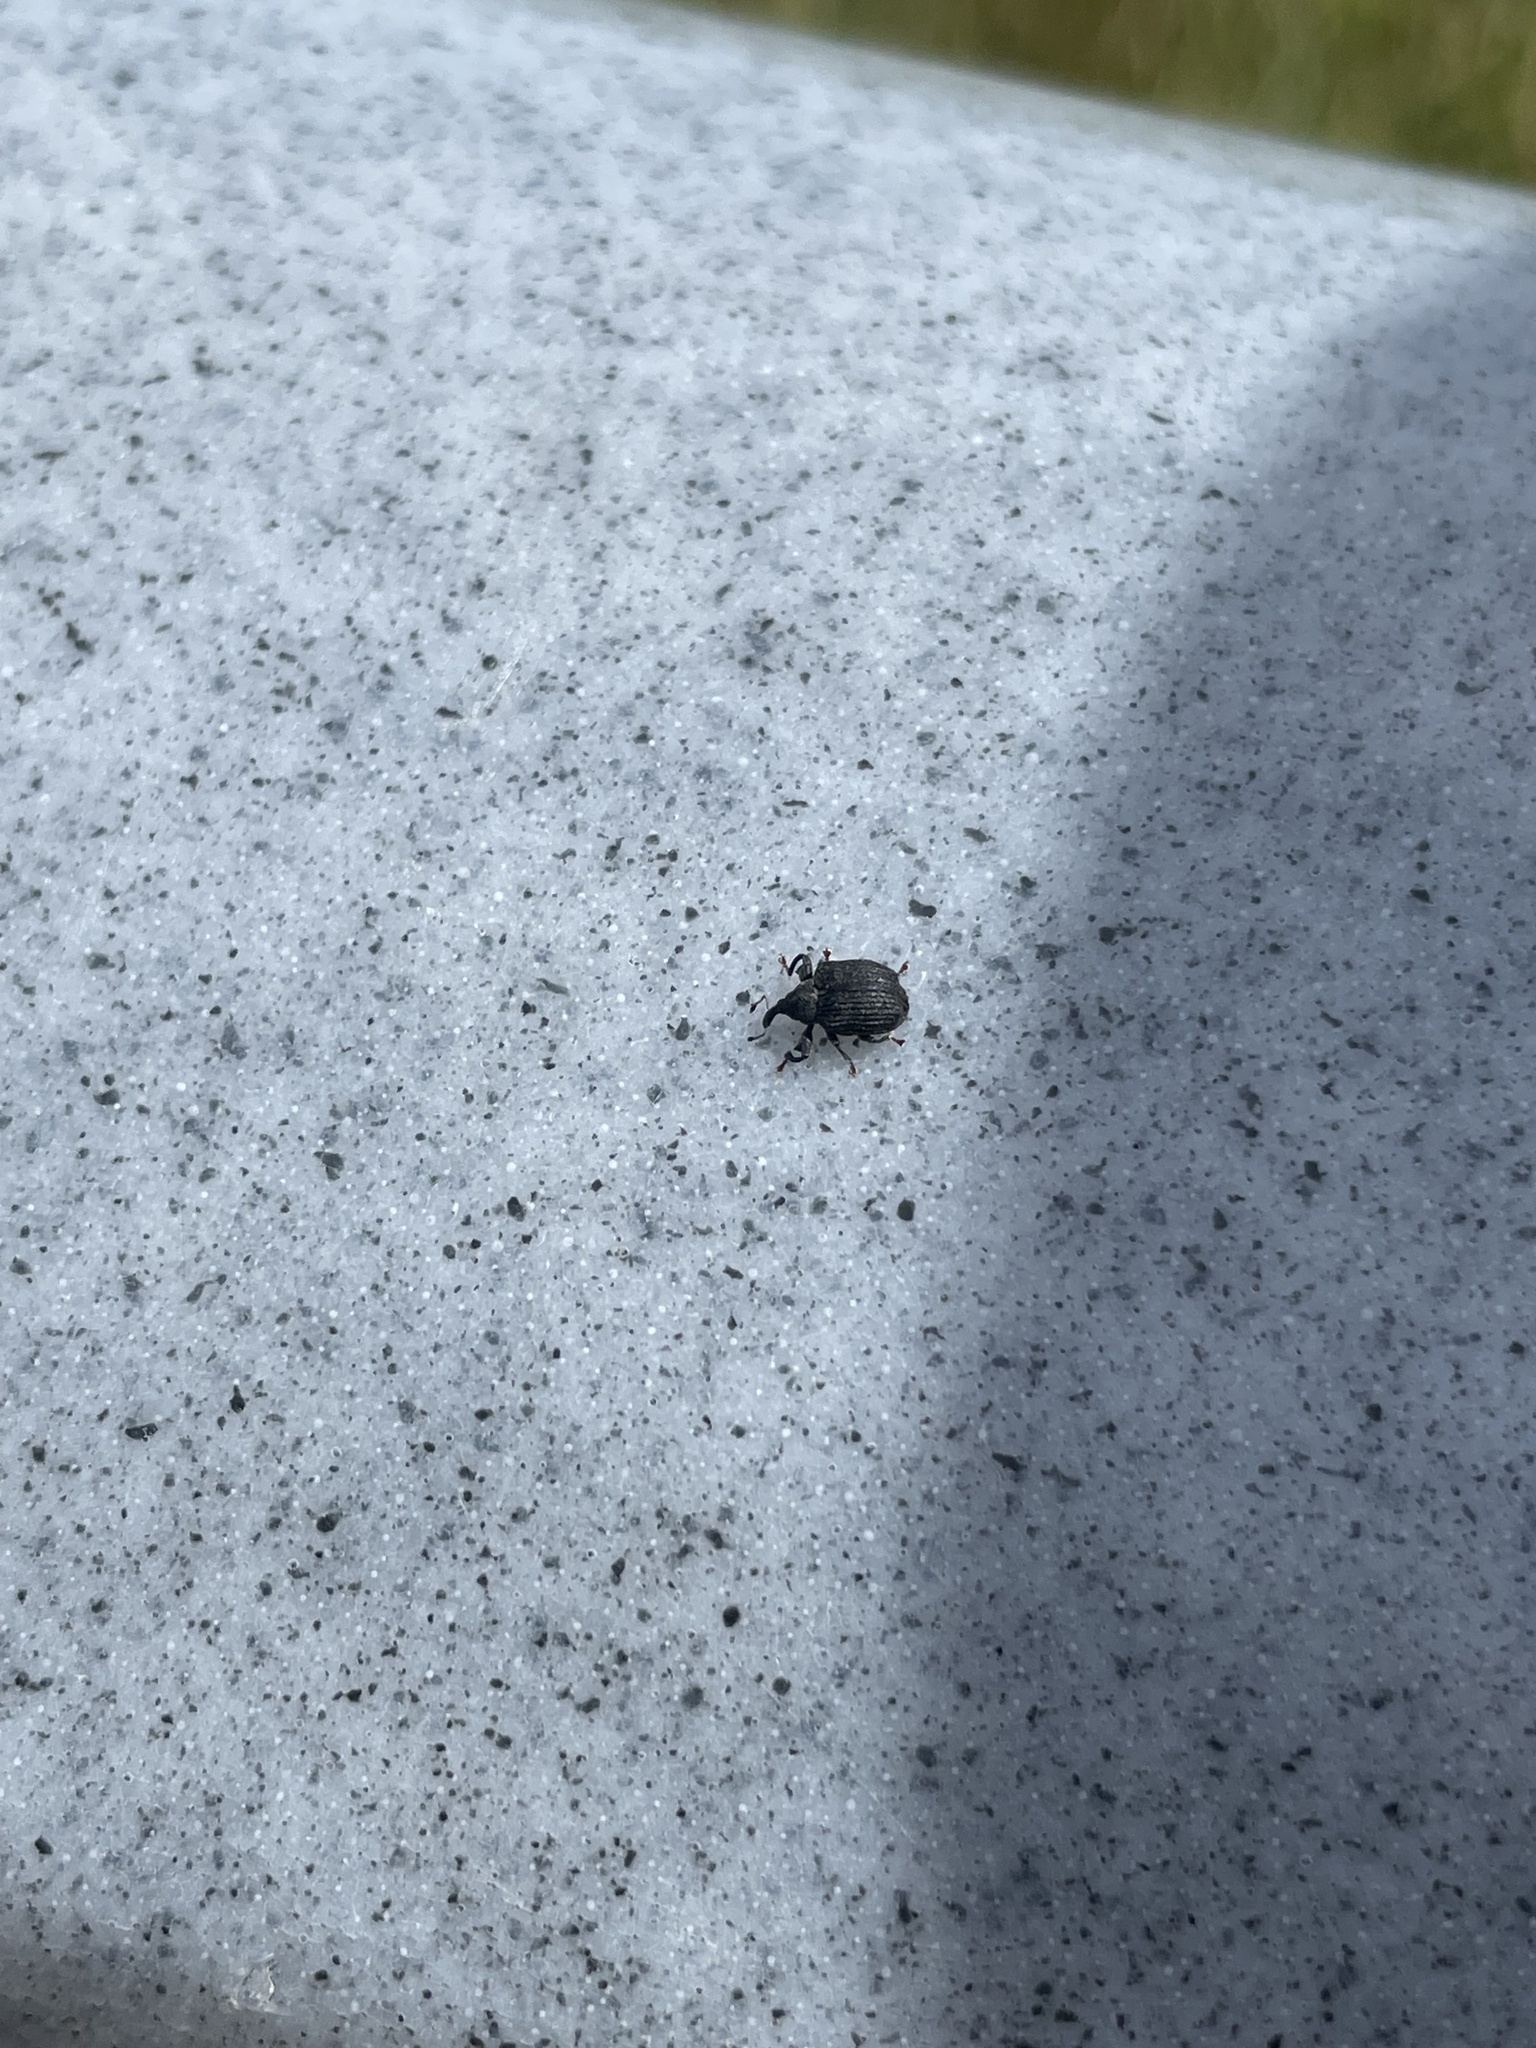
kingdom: Animalia
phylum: Arthropoda
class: Insecta
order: Coleoptera
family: Curculionidae
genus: Odontopus
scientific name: Odontopus calceatus
